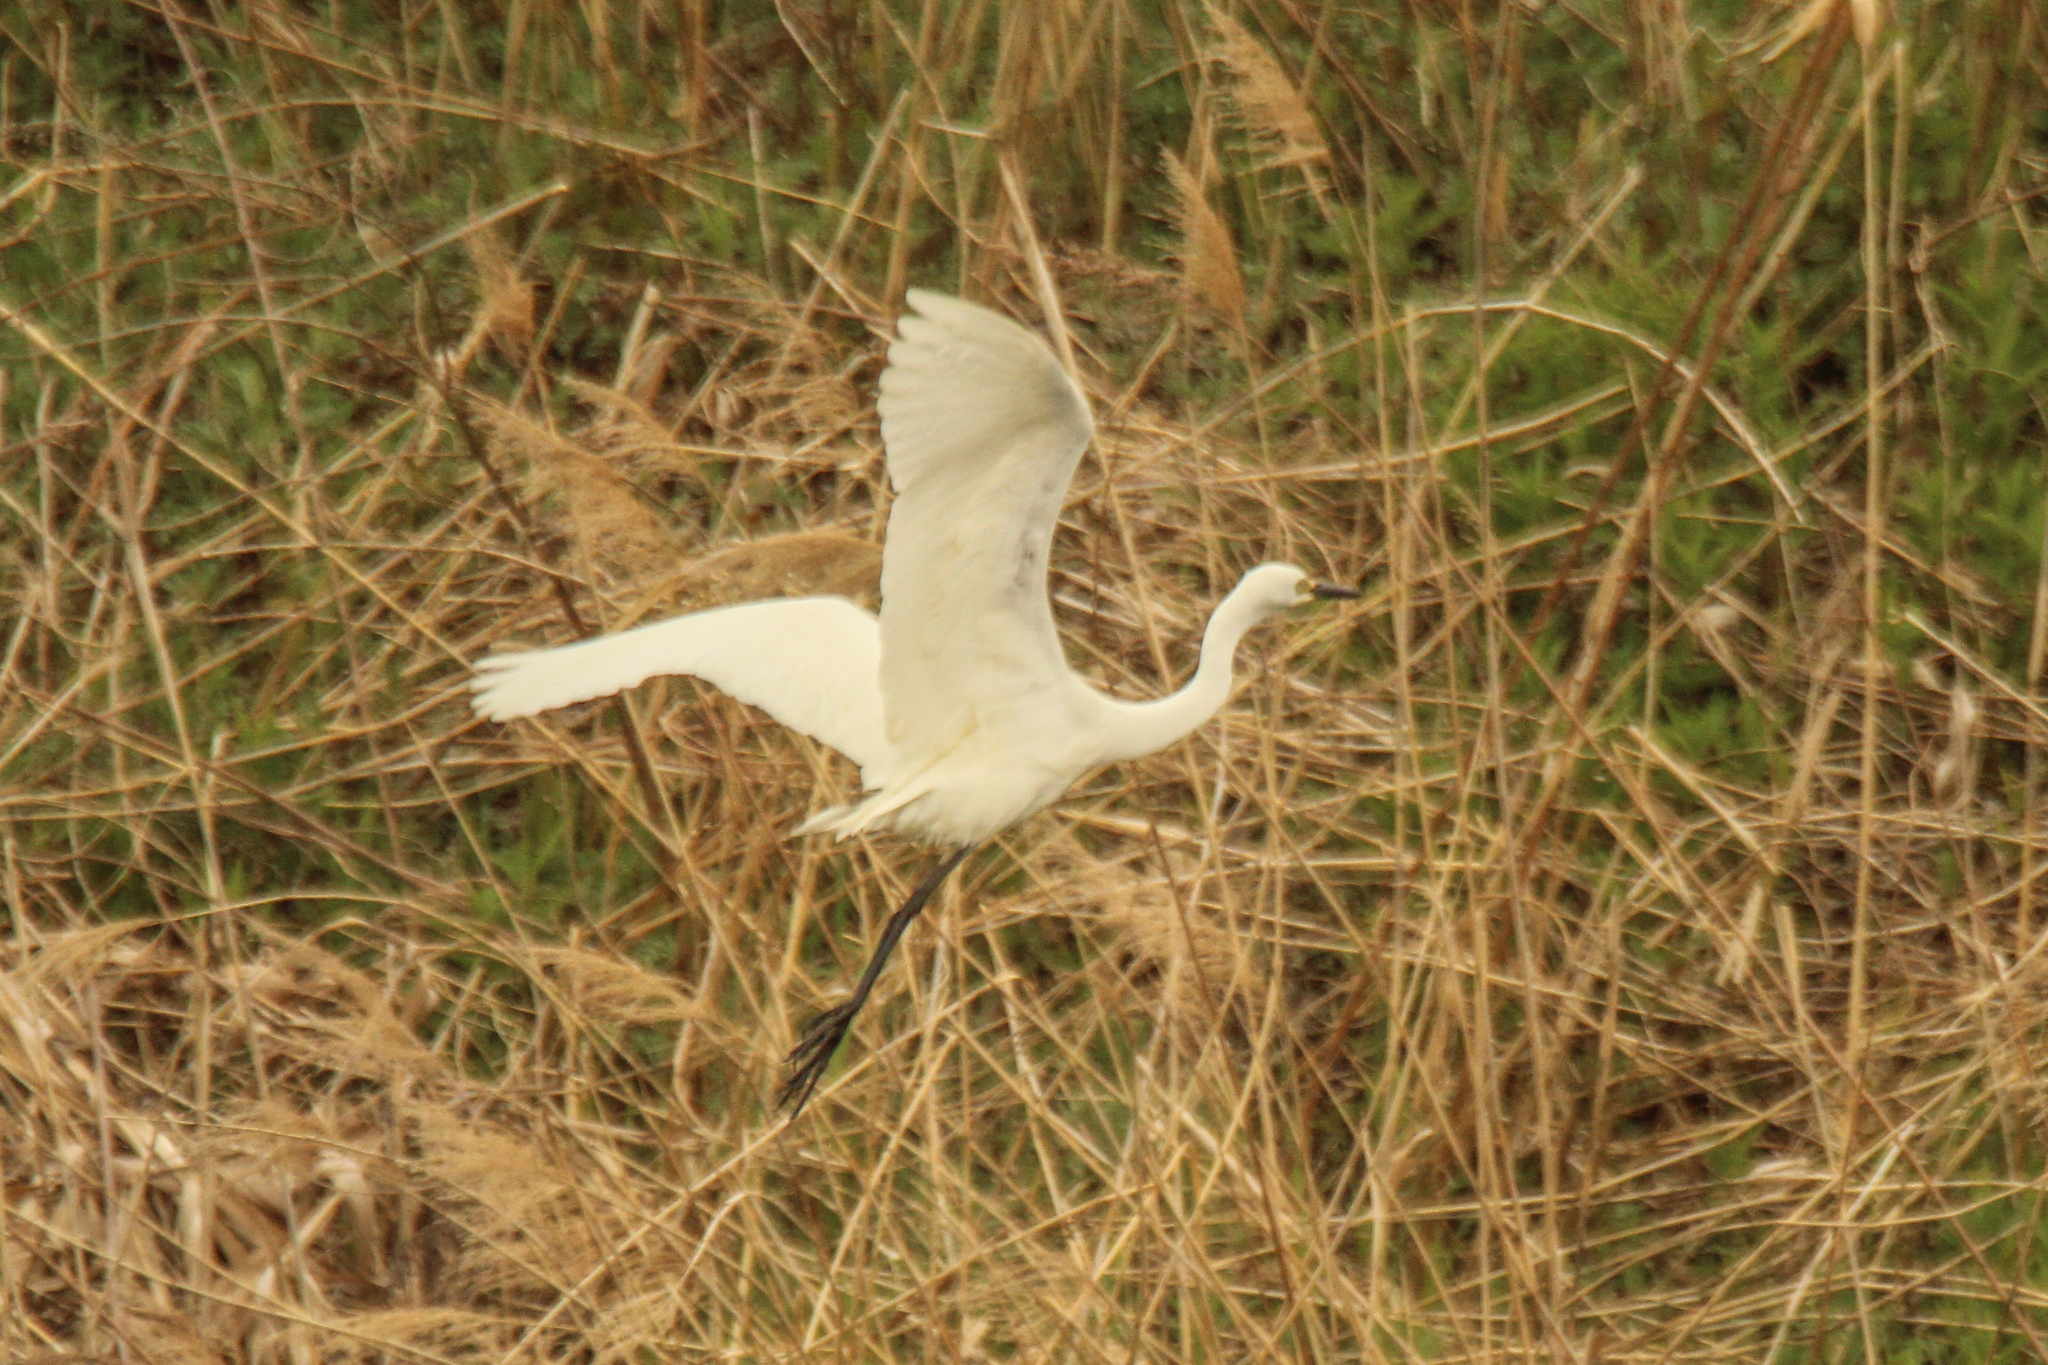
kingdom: Animalia
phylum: Chordata
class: Aves
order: Pelecaniformes
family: Ardeidae
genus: Egretta
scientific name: Egretta intermedia
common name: Intermediate egret
